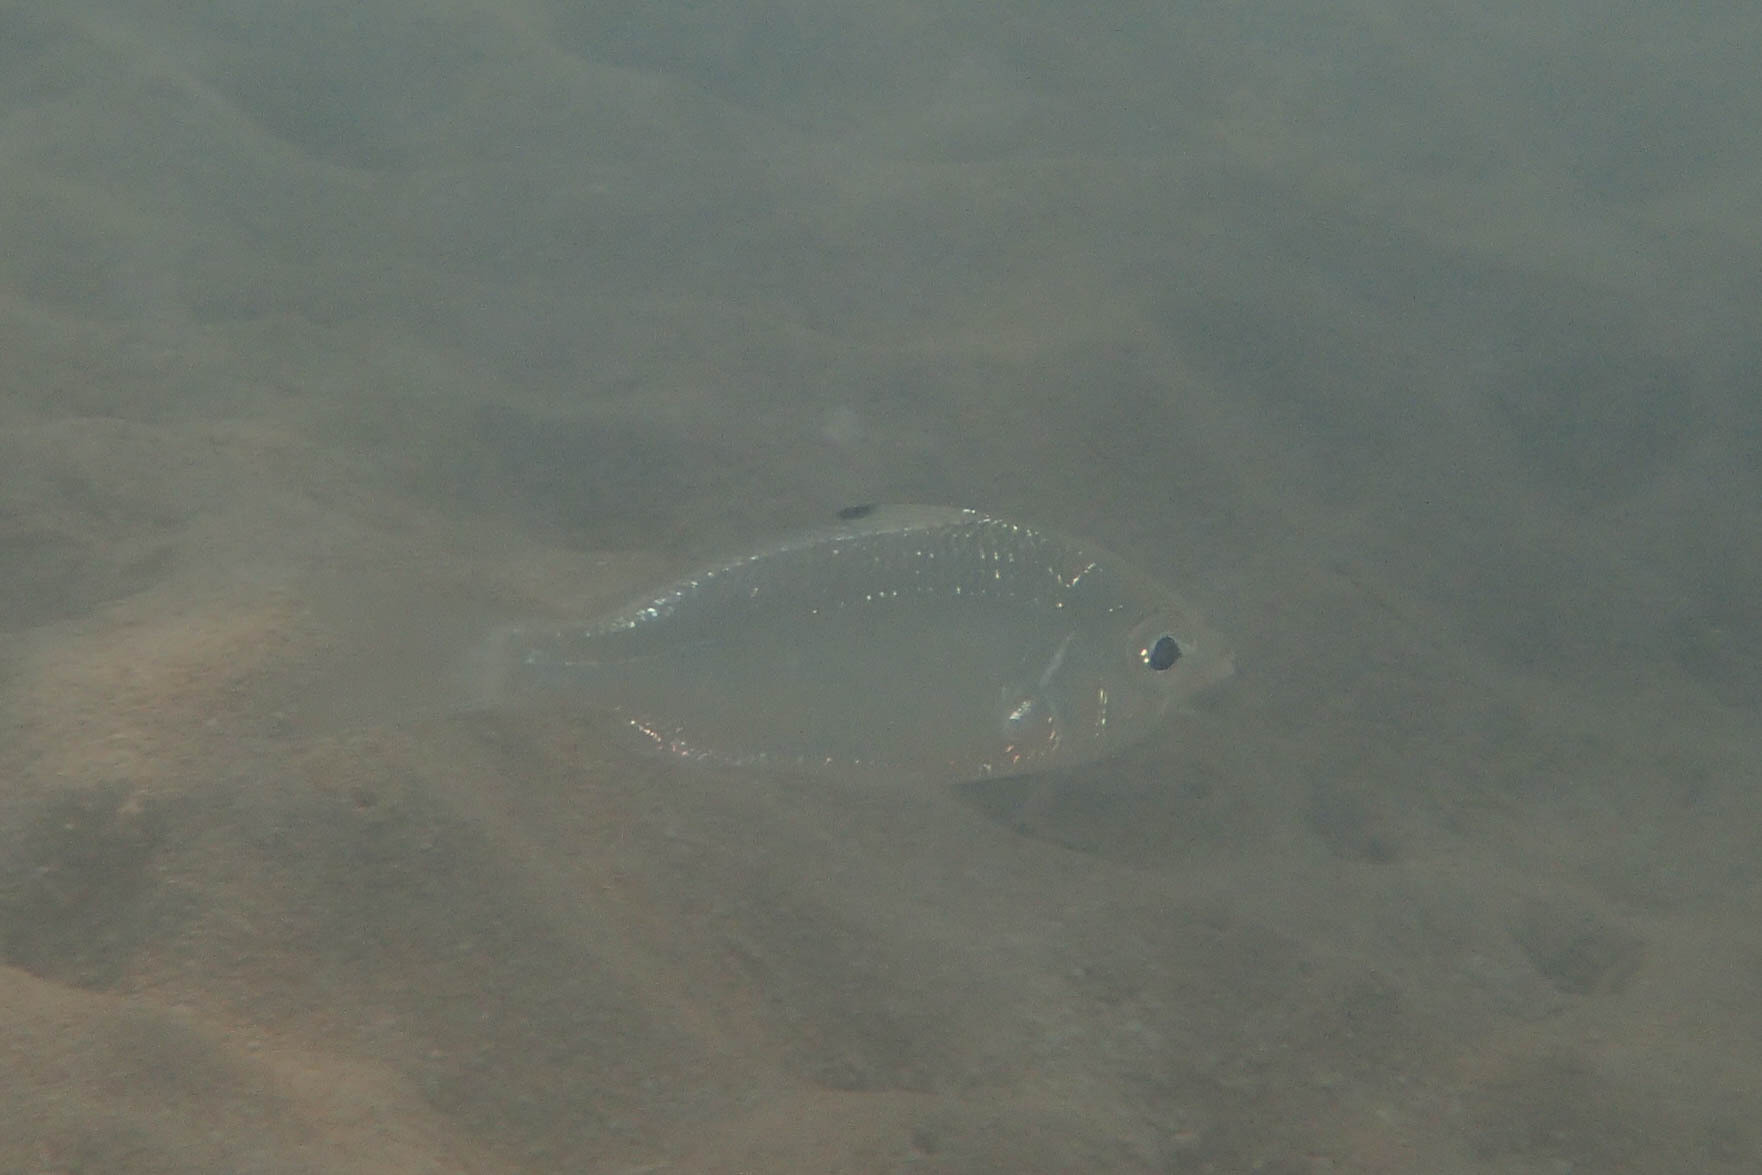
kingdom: Animalia
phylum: Chordata
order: Perciformes
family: Gerreidae
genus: Gerres
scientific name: Gerres oyena
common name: Common silver-biddy
